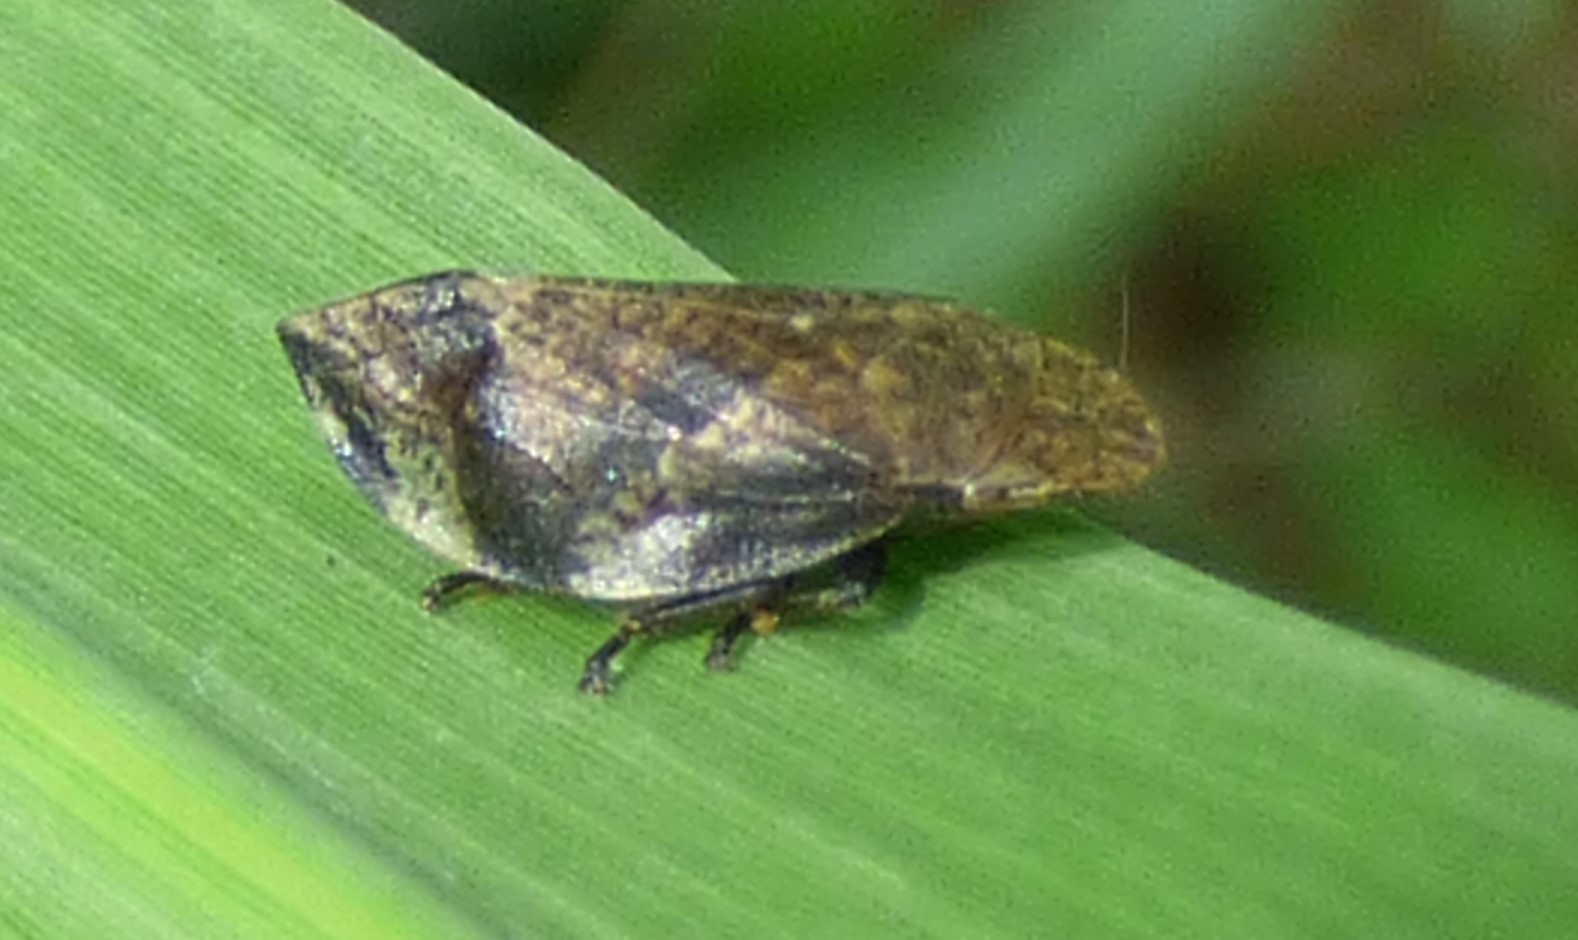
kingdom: Animalia
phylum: Arthropoda
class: Insecta
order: Hemiptera
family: Aphrophoridae
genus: Lepyronia
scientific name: Lepyronia quadrangularis
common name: Diamond-backed spittlebug
